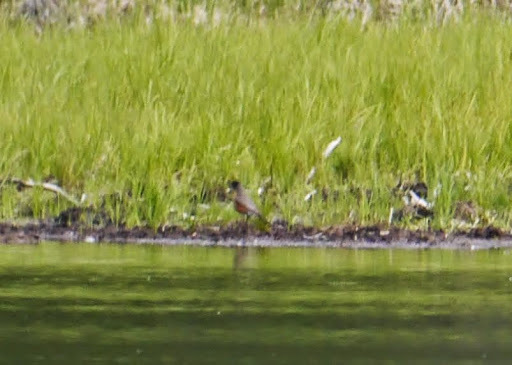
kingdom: Animalia
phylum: Chordata
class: Aves
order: Passeriformes
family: Turdidae
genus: Turdus
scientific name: Turdus migratorius
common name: American robin
